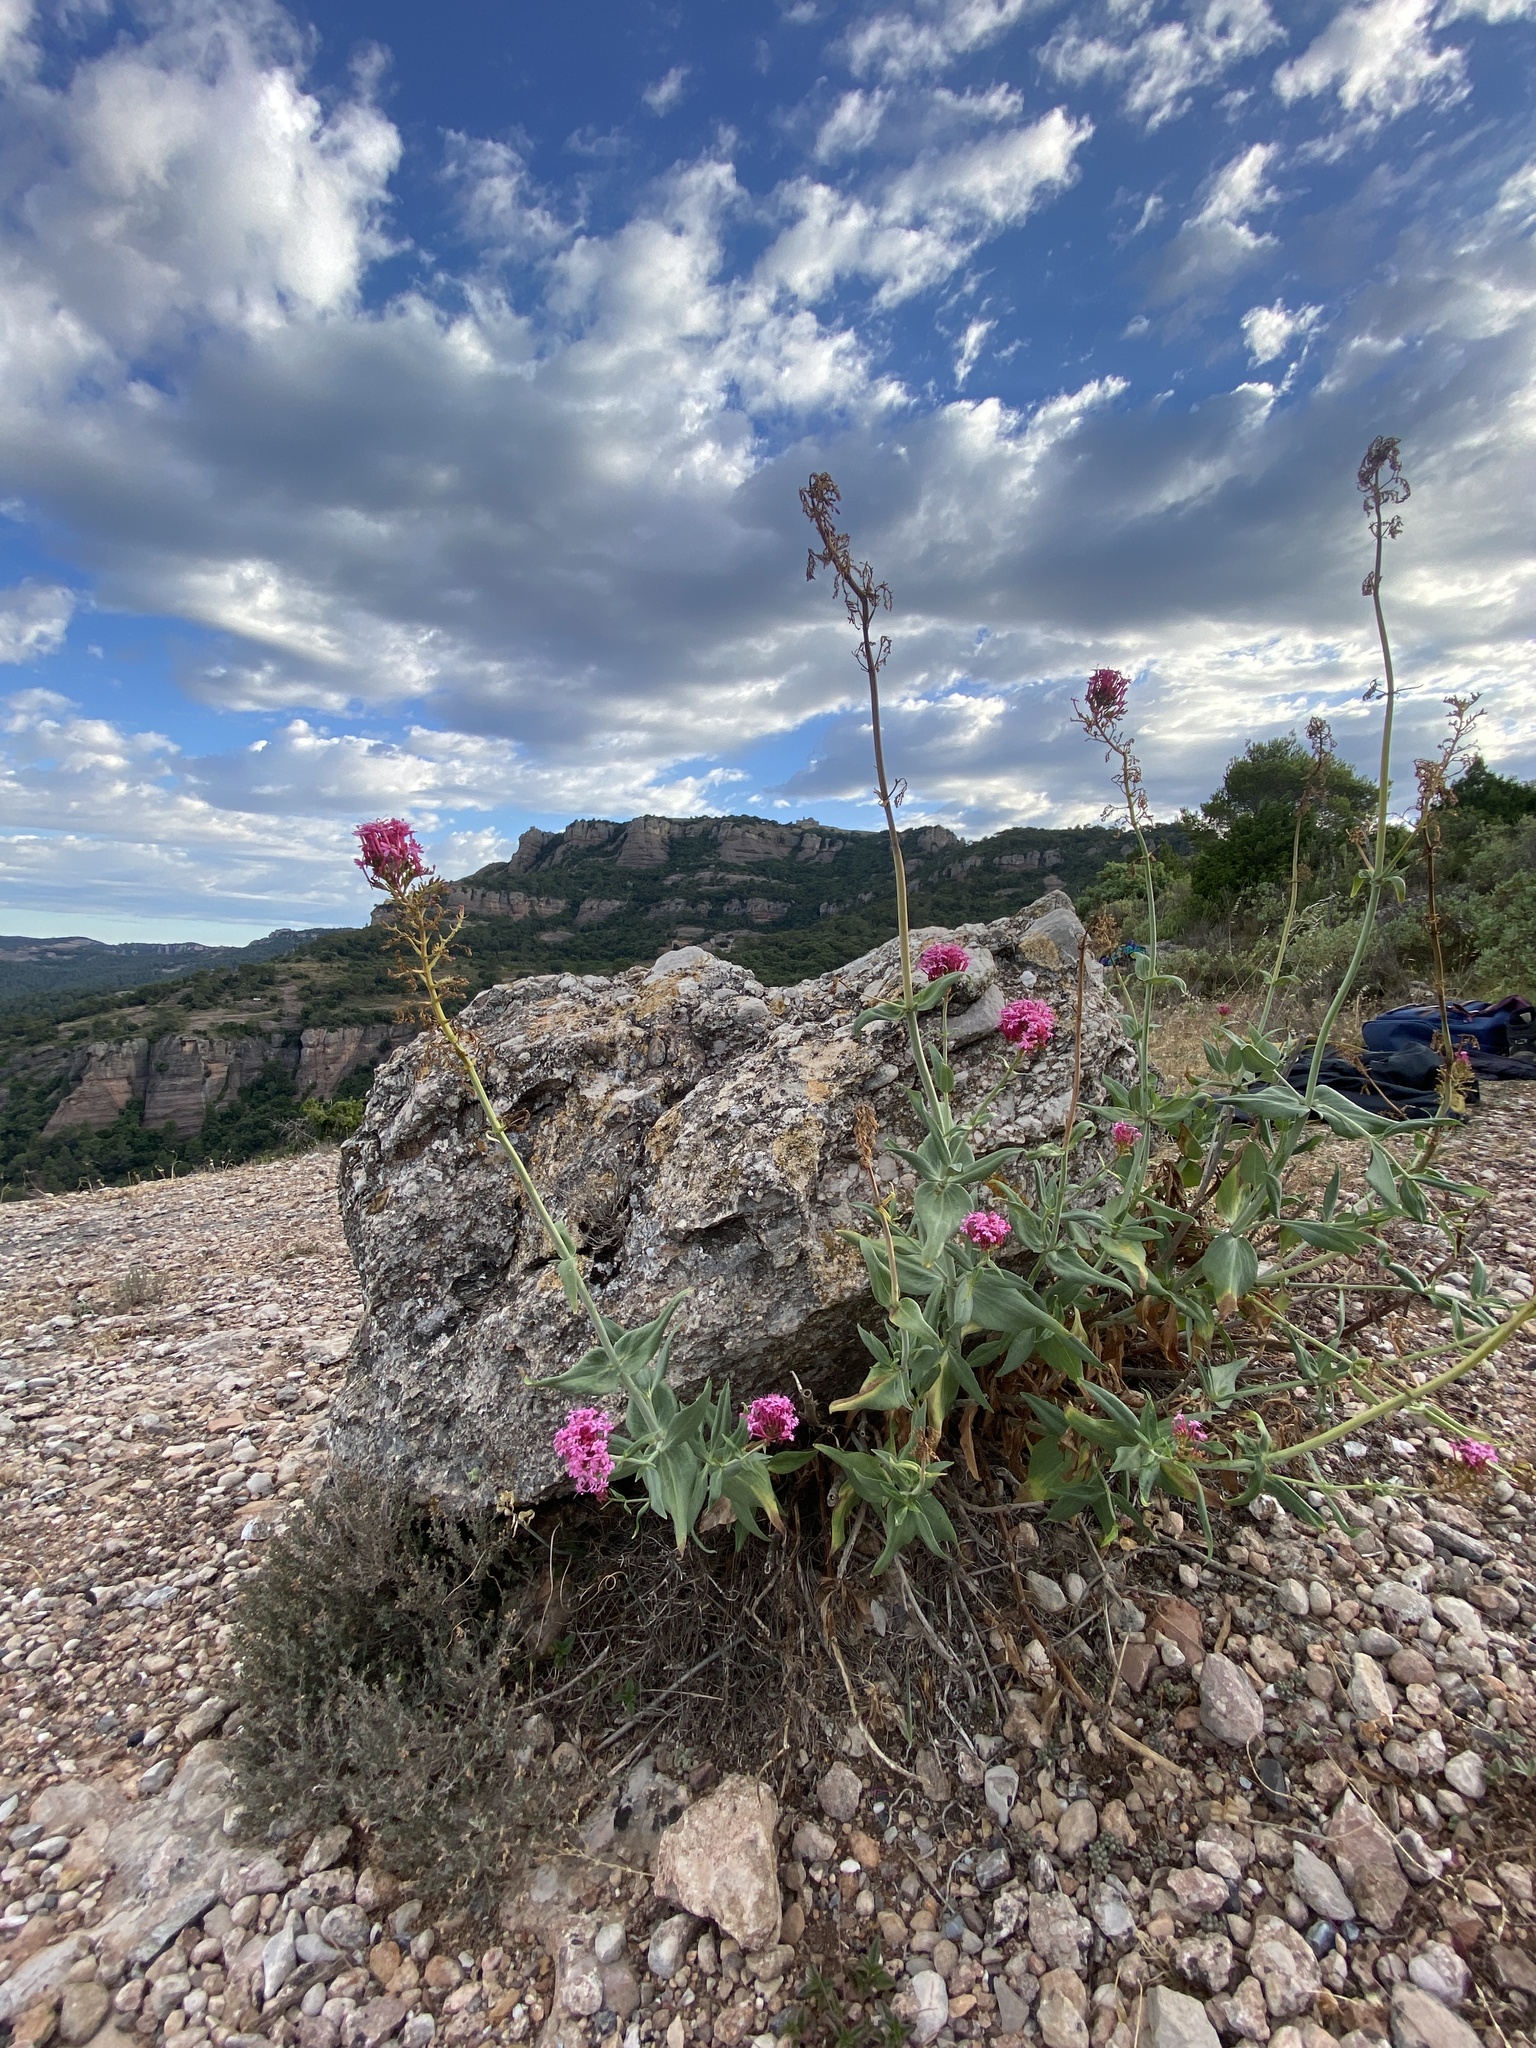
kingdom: Plantae
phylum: Tracheophyta
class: Magnoliopsida
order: Dipsacales
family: Caprifoliaceae
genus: Centranthus
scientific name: Centranthus ruber
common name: Red valerian
